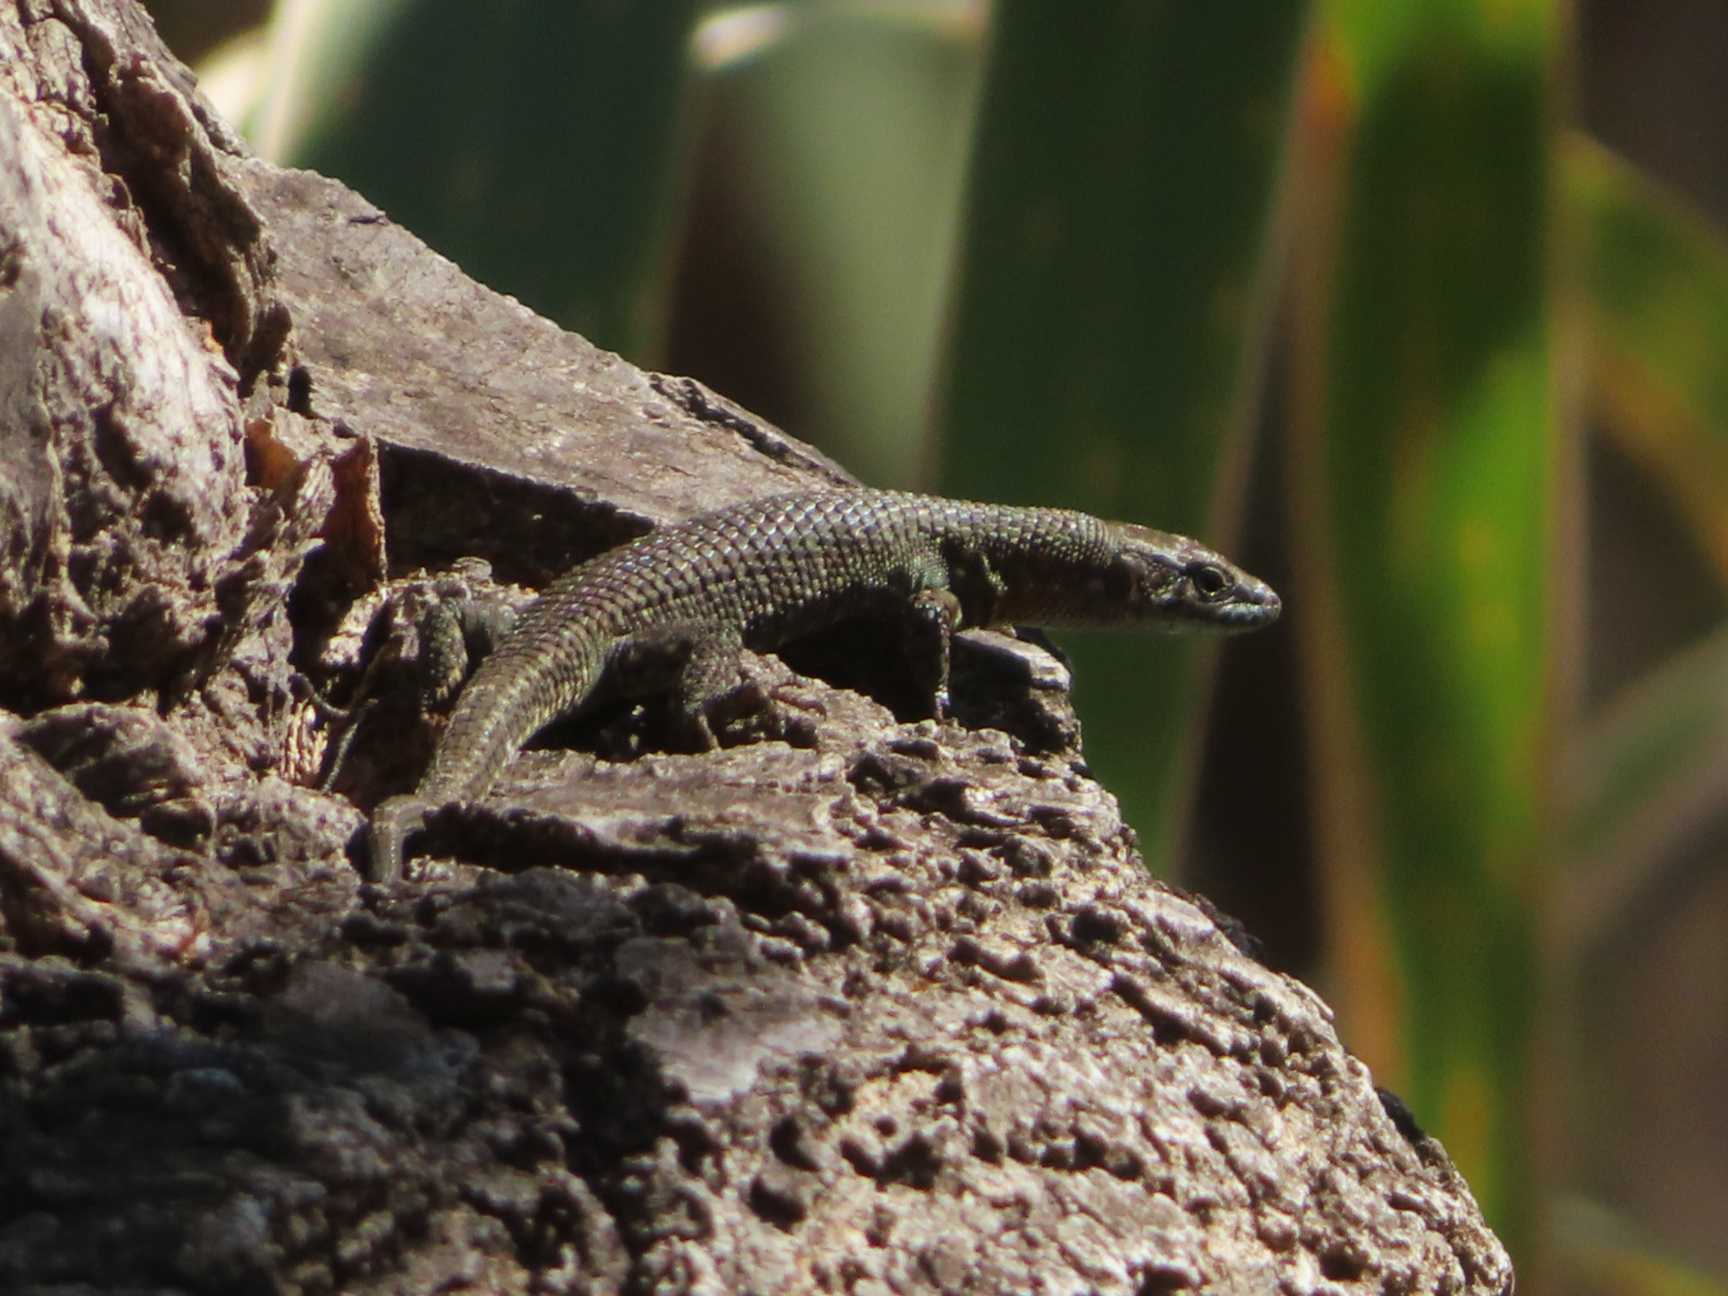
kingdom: Animalia
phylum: Chordata
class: Squamata
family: Lacertidae
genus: Algyroides
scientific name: Algyroides nigropunctatus
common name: Blue-throated keeled lizard
